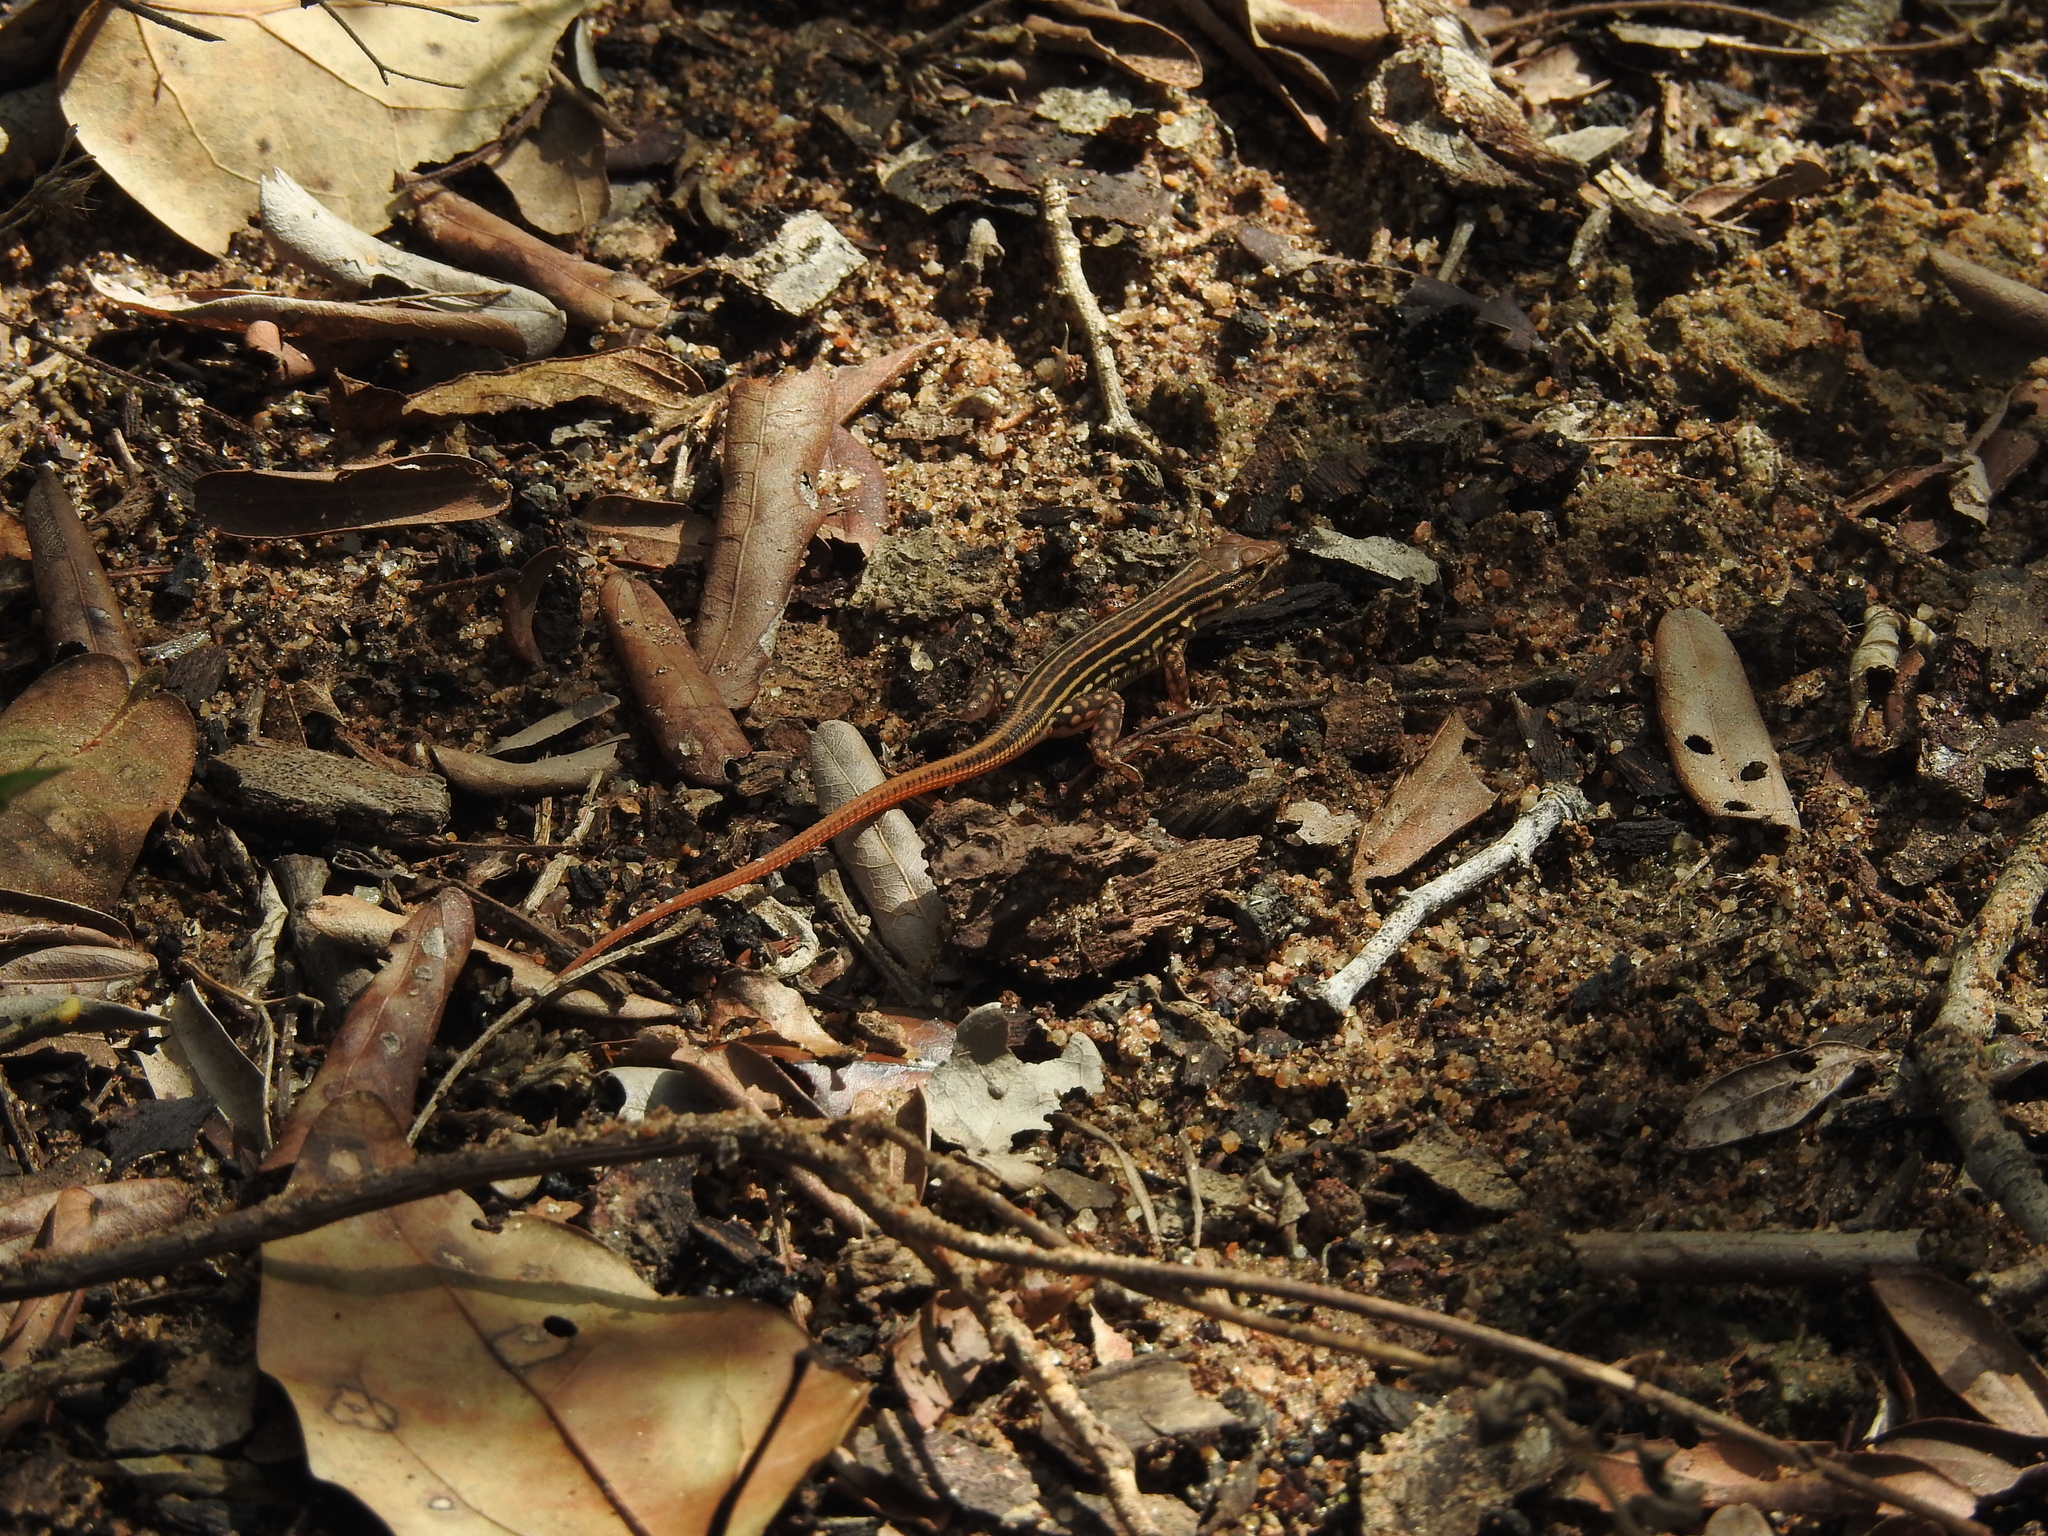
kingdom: Animalia
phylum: Chordata
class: Squamata
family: Lacertidae
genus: Heliobolus
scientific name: Heliobolus spekii
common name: Speke’s sand lizard
